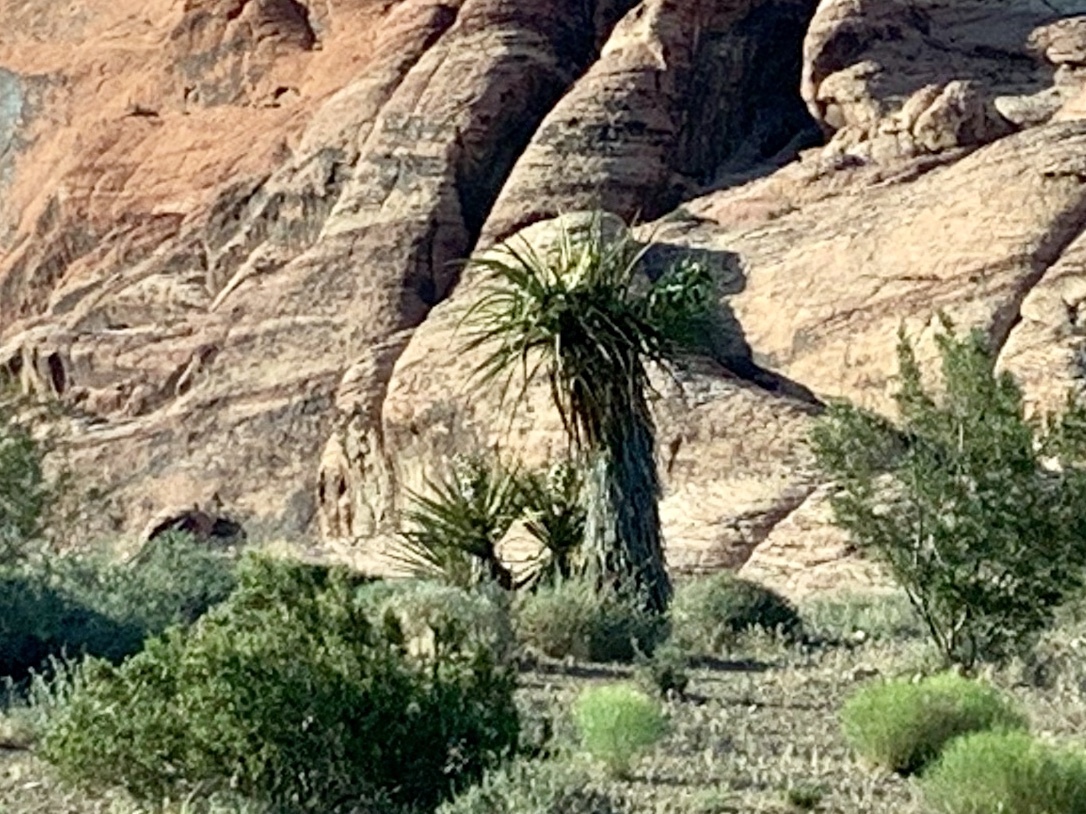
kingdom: Plantae
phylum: Tracheophyta
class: Liliopsida
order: Asparagales
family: Asparagaceae
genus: Yucca
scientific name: Yucca schidigera
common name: Mojave yucca
